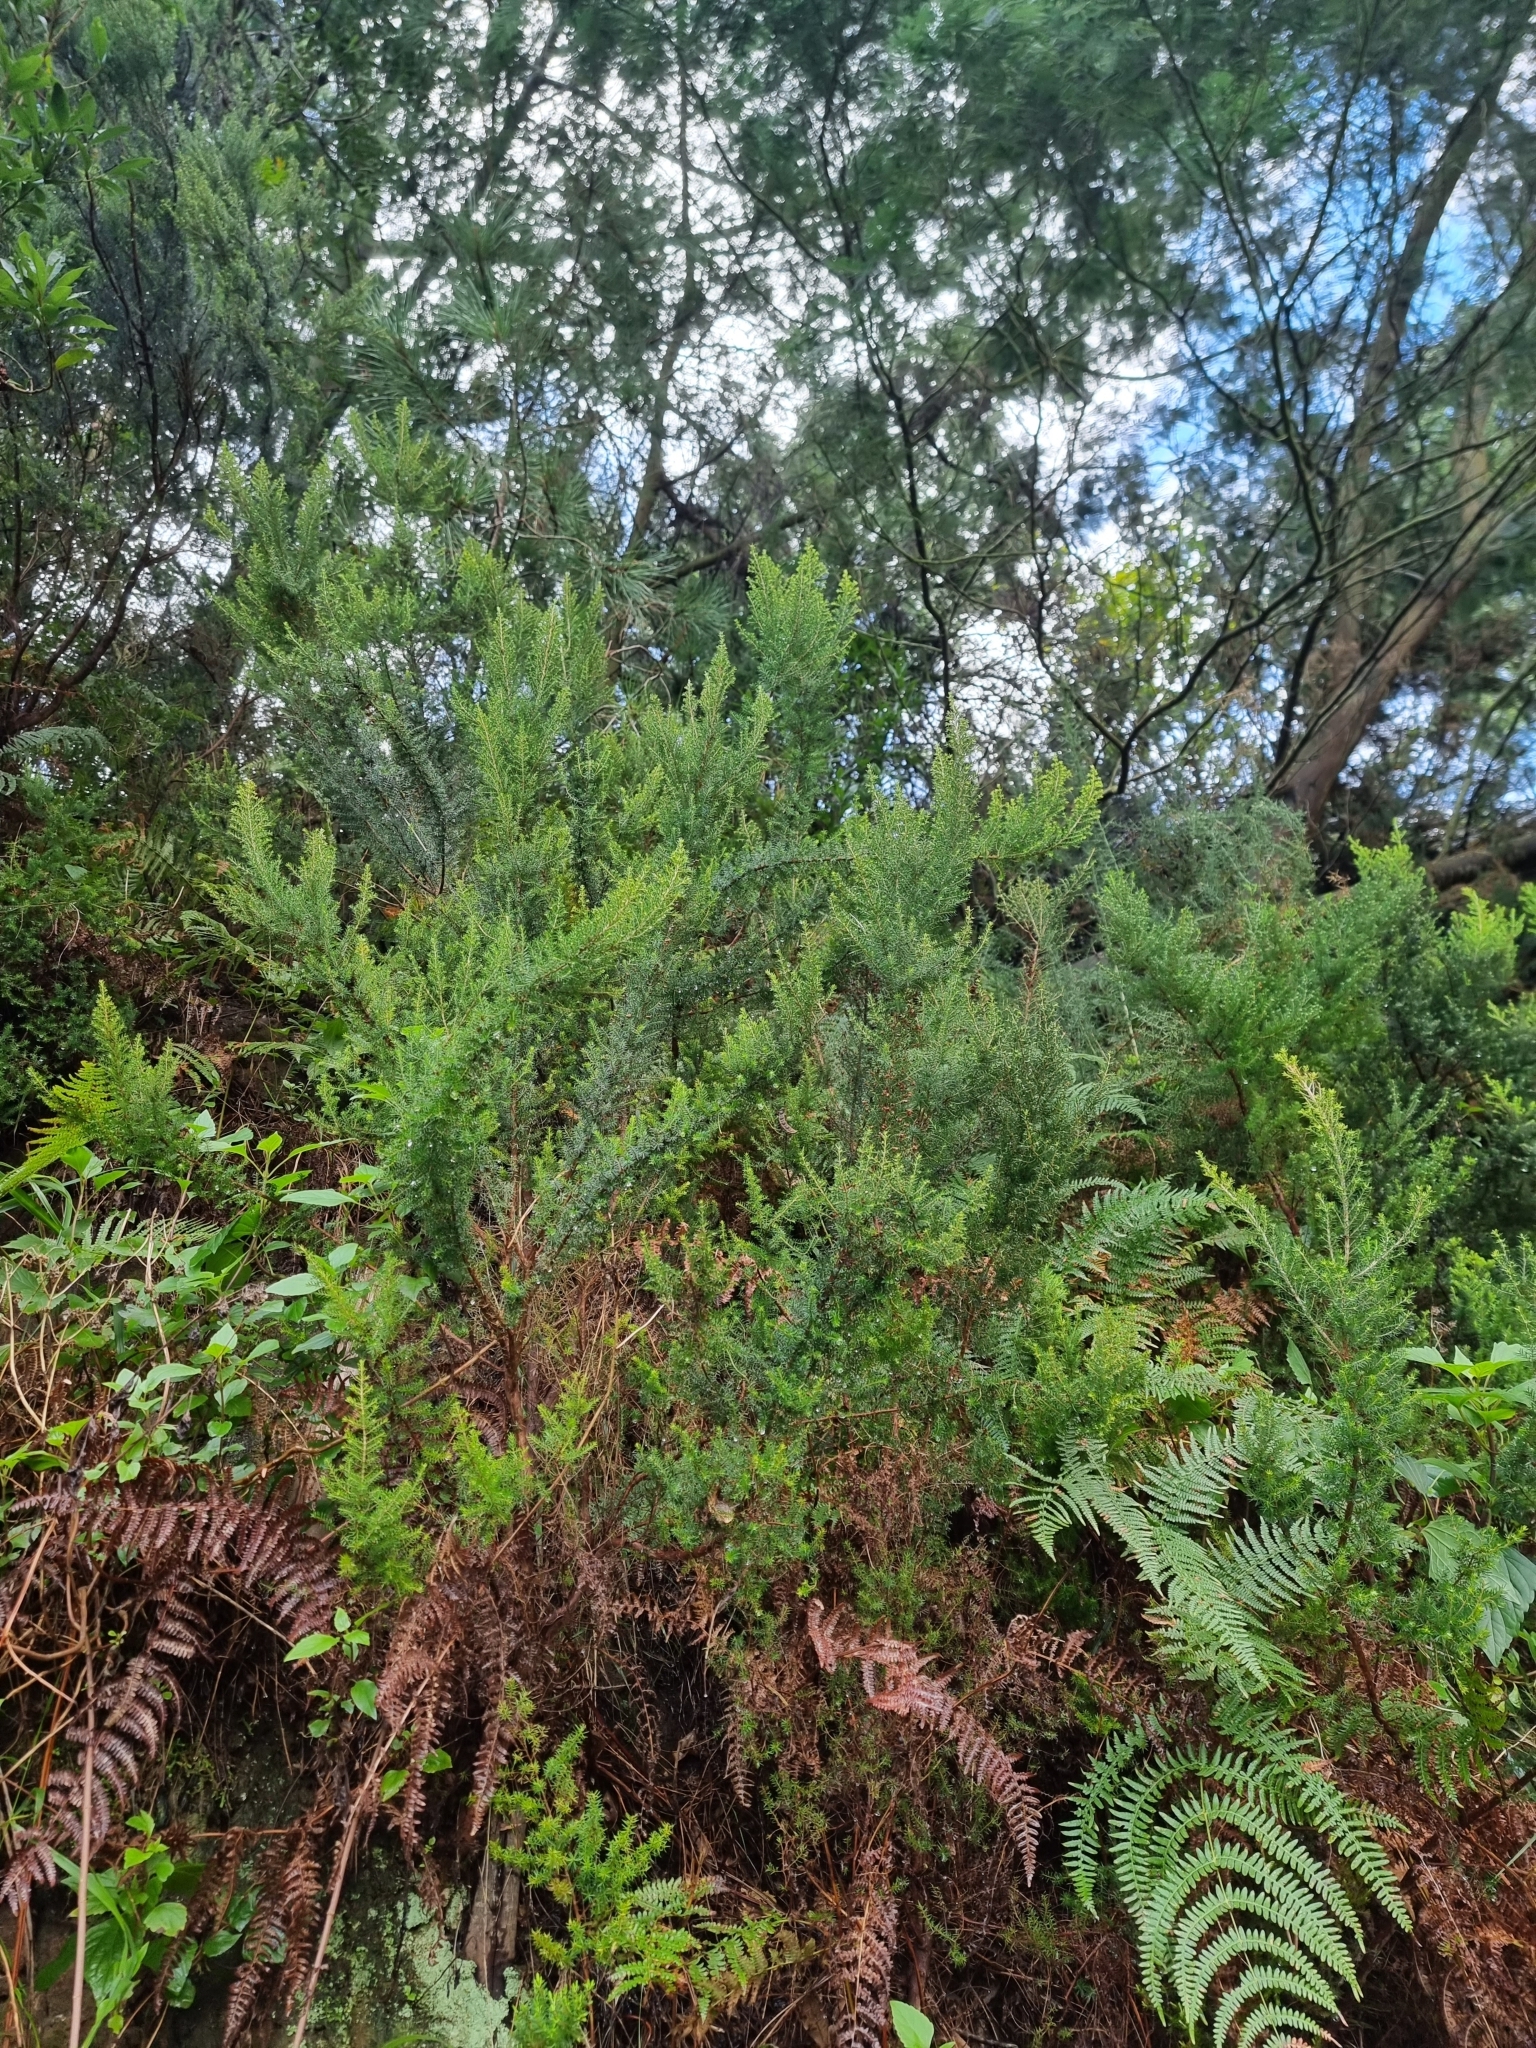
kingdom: Plantae
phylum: Tracheophyta
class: Magnoliopsida
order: Ericales
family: Ericaceae
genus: Erica
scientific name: Erica canariensis
